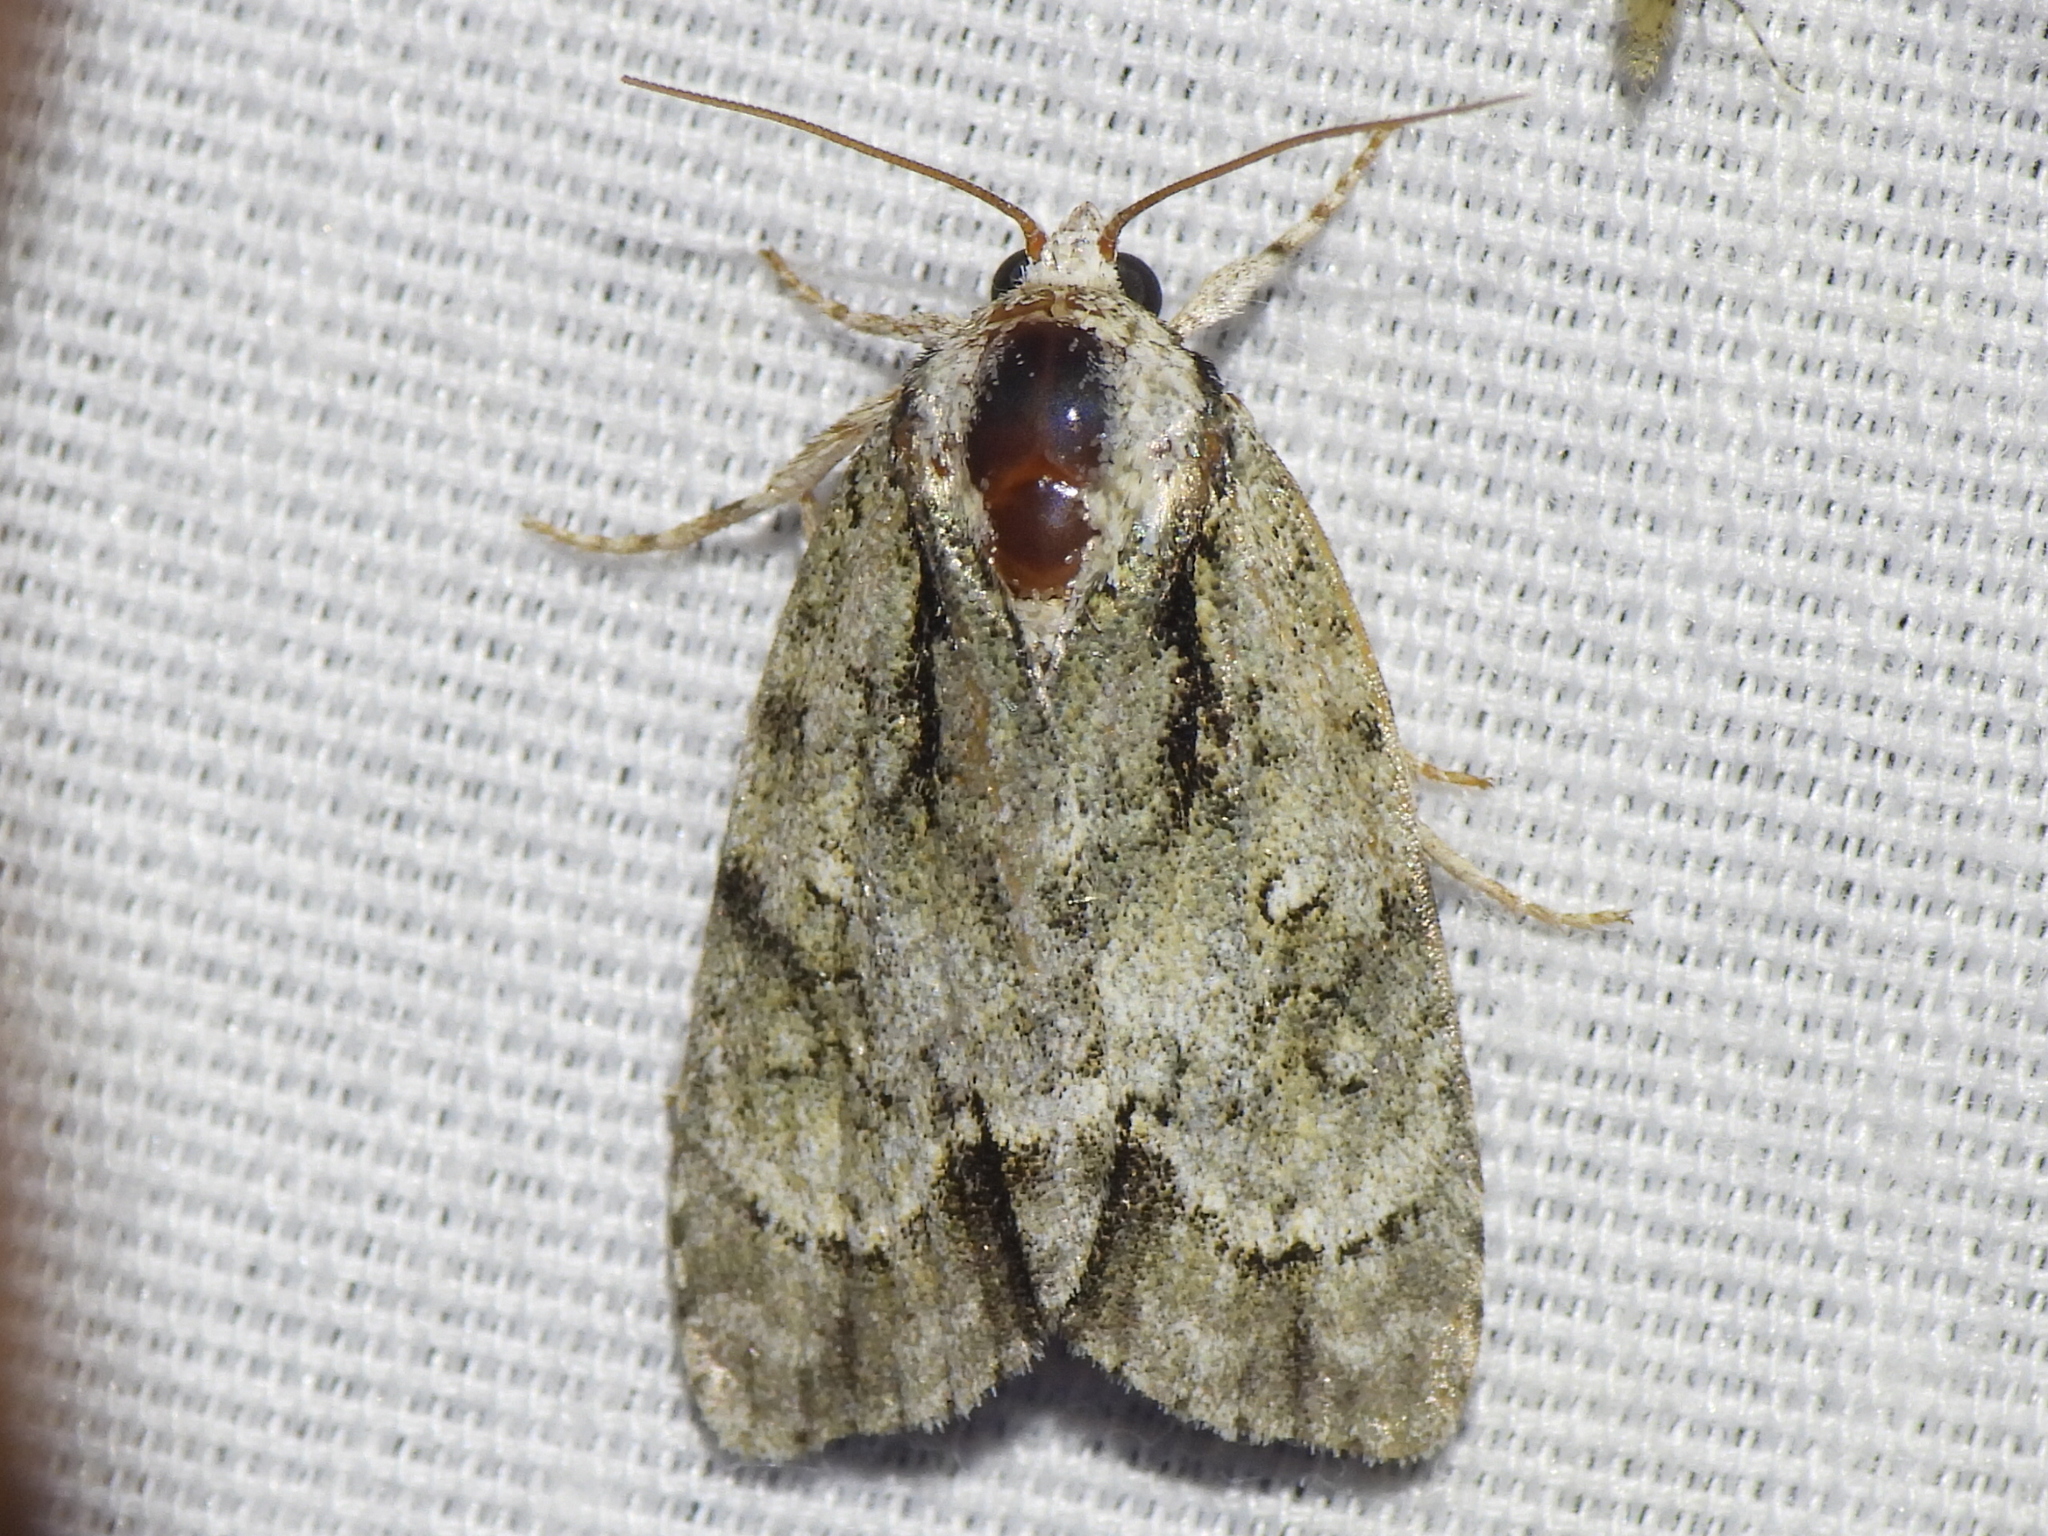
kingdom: Animalia
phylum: Arthropoda
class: Insecta
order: Lepidoptera
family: Noctuidae
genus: Acronicta
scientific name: Acronicta vinnula
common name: Delightful dagger
